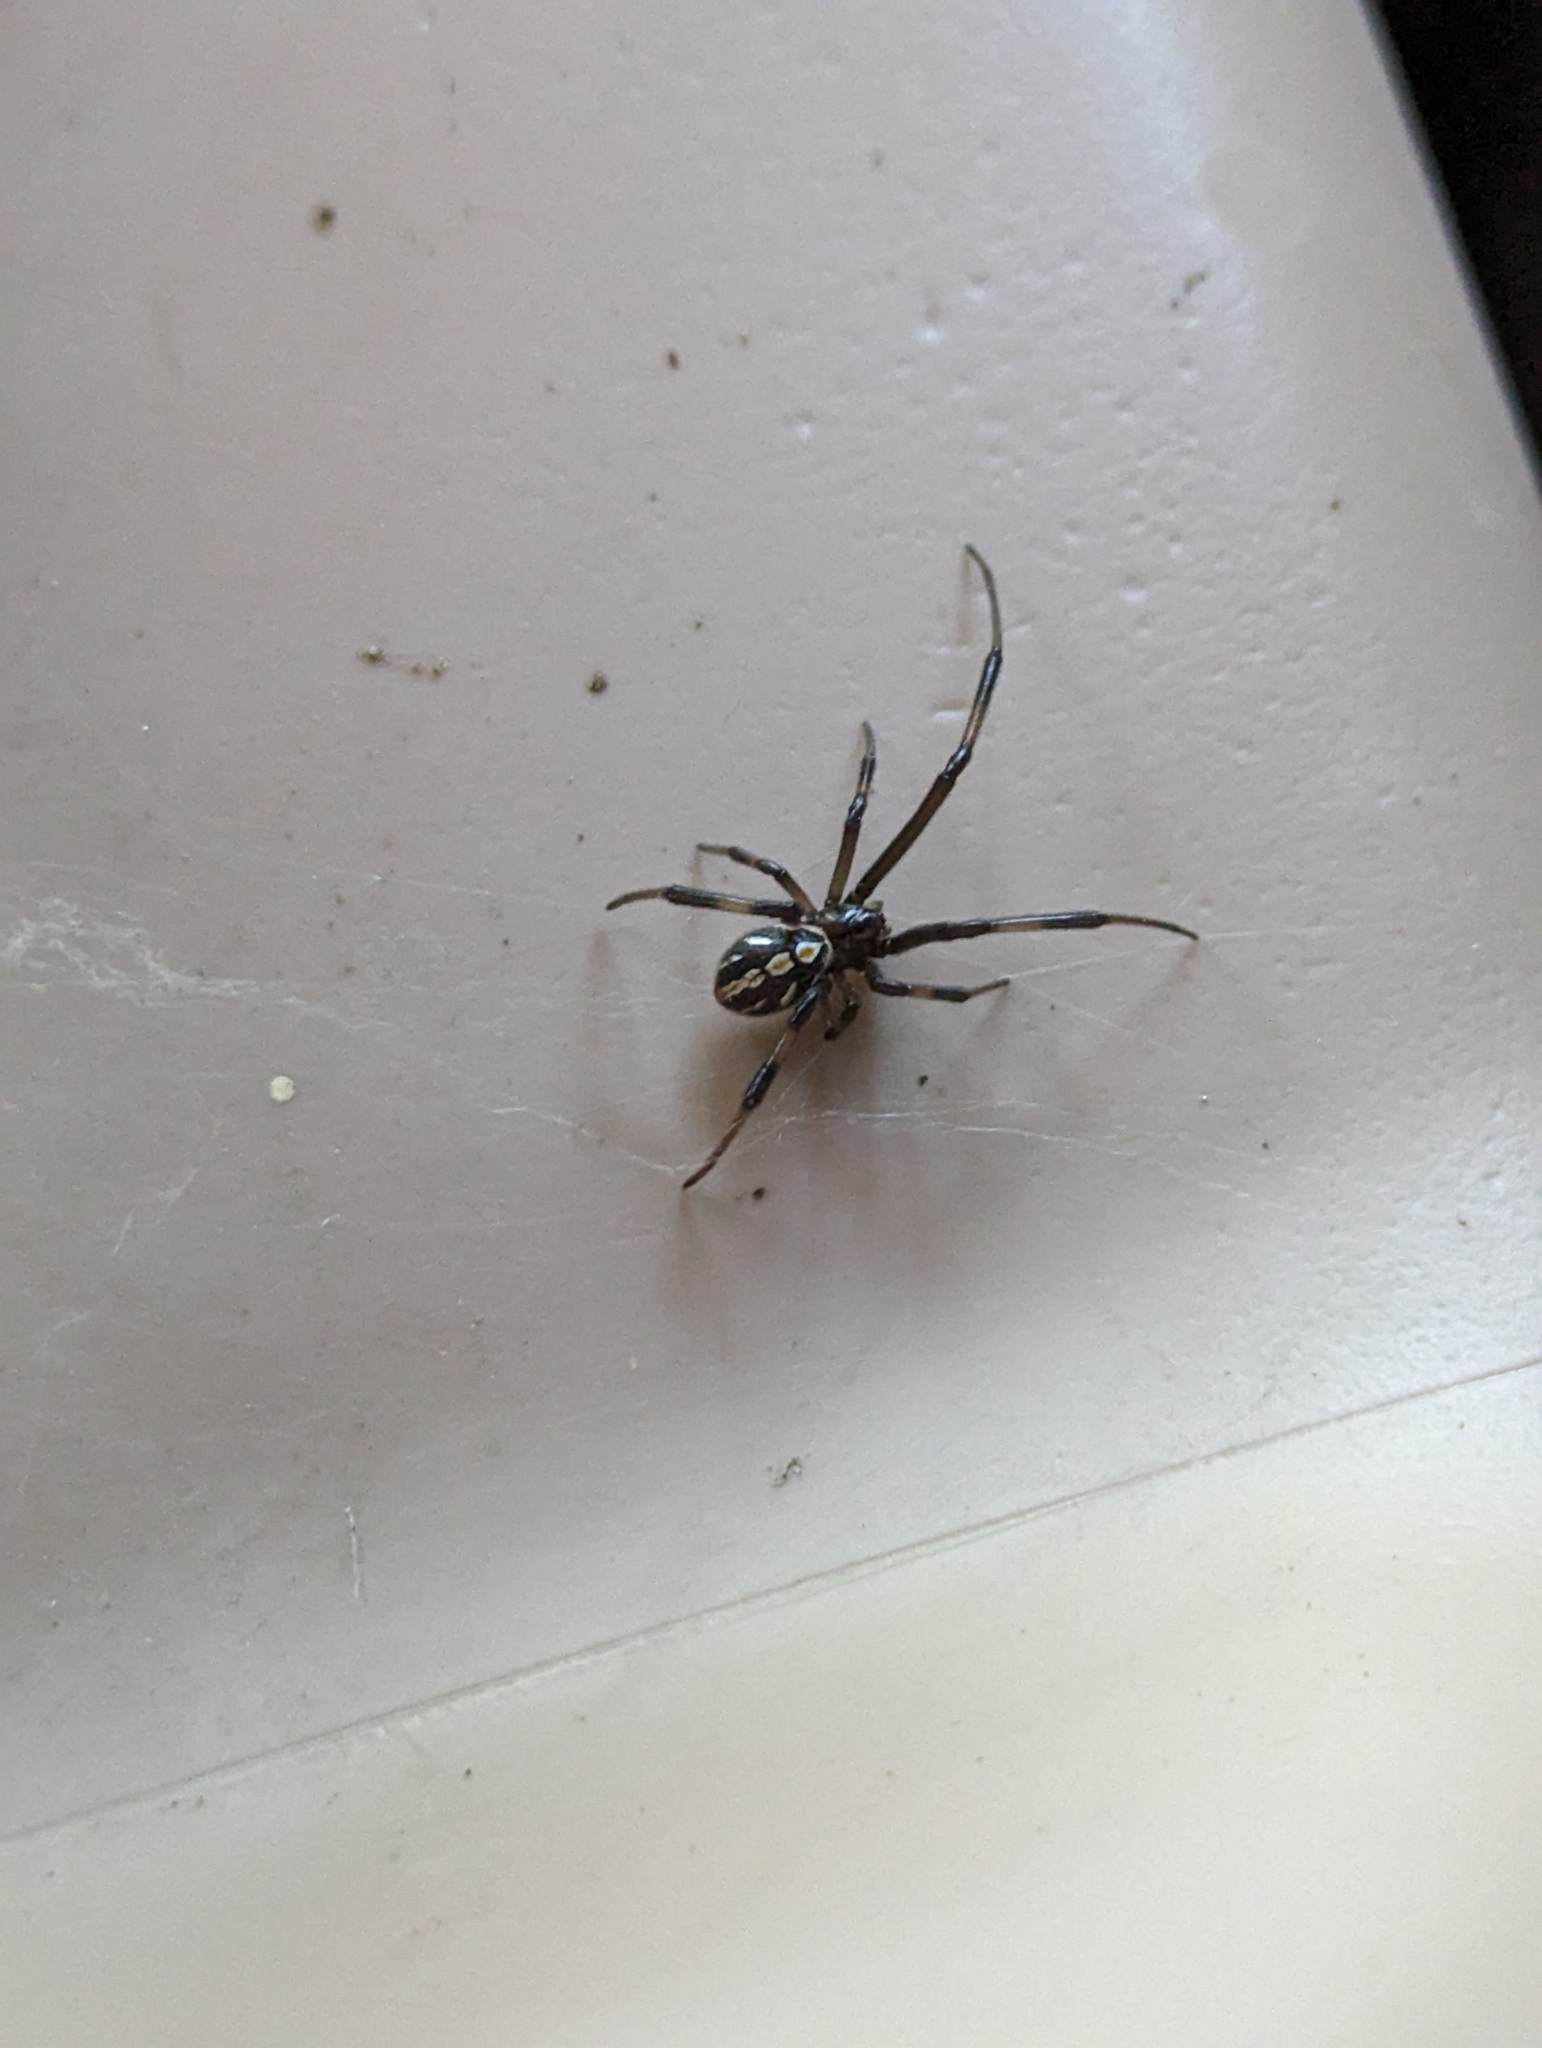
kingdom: Animalia
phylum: Arthropoda
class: Arachnida
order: Araneae
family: Theridiidae
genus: Latrodectus
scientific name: Latrodectus hesperus
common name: Western black widow
